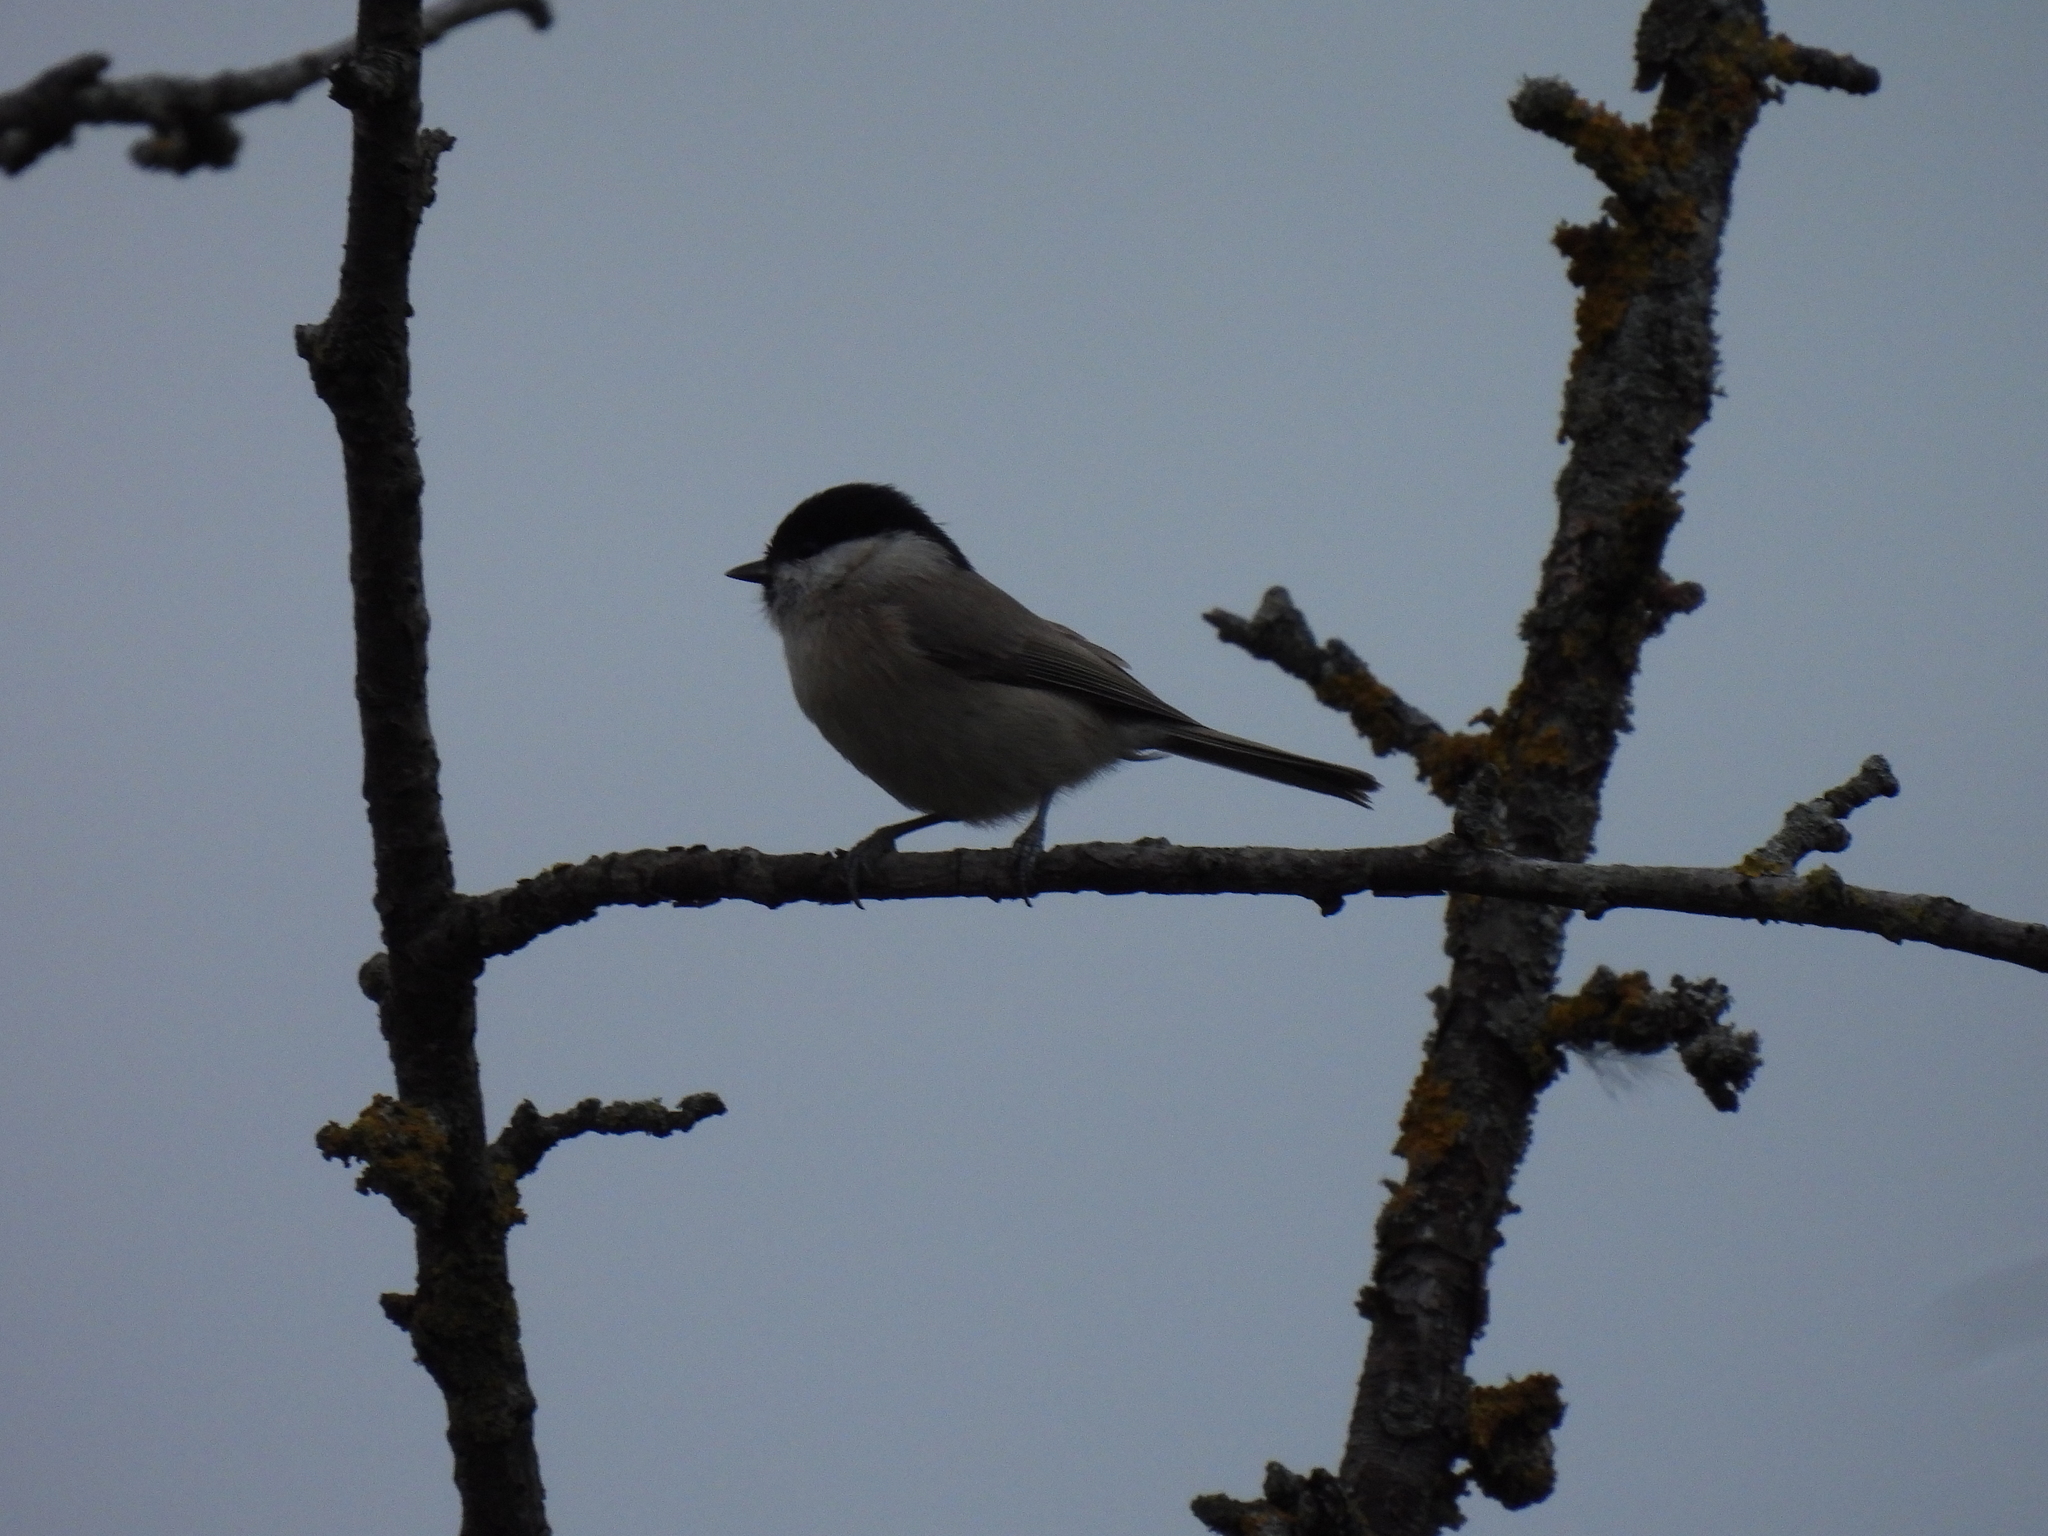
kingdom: Animalia
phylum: Chordata
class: Aves
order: Passeriformes
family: Paridae
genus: Poecile
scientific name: Poecile palustris
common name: Marsh tit
